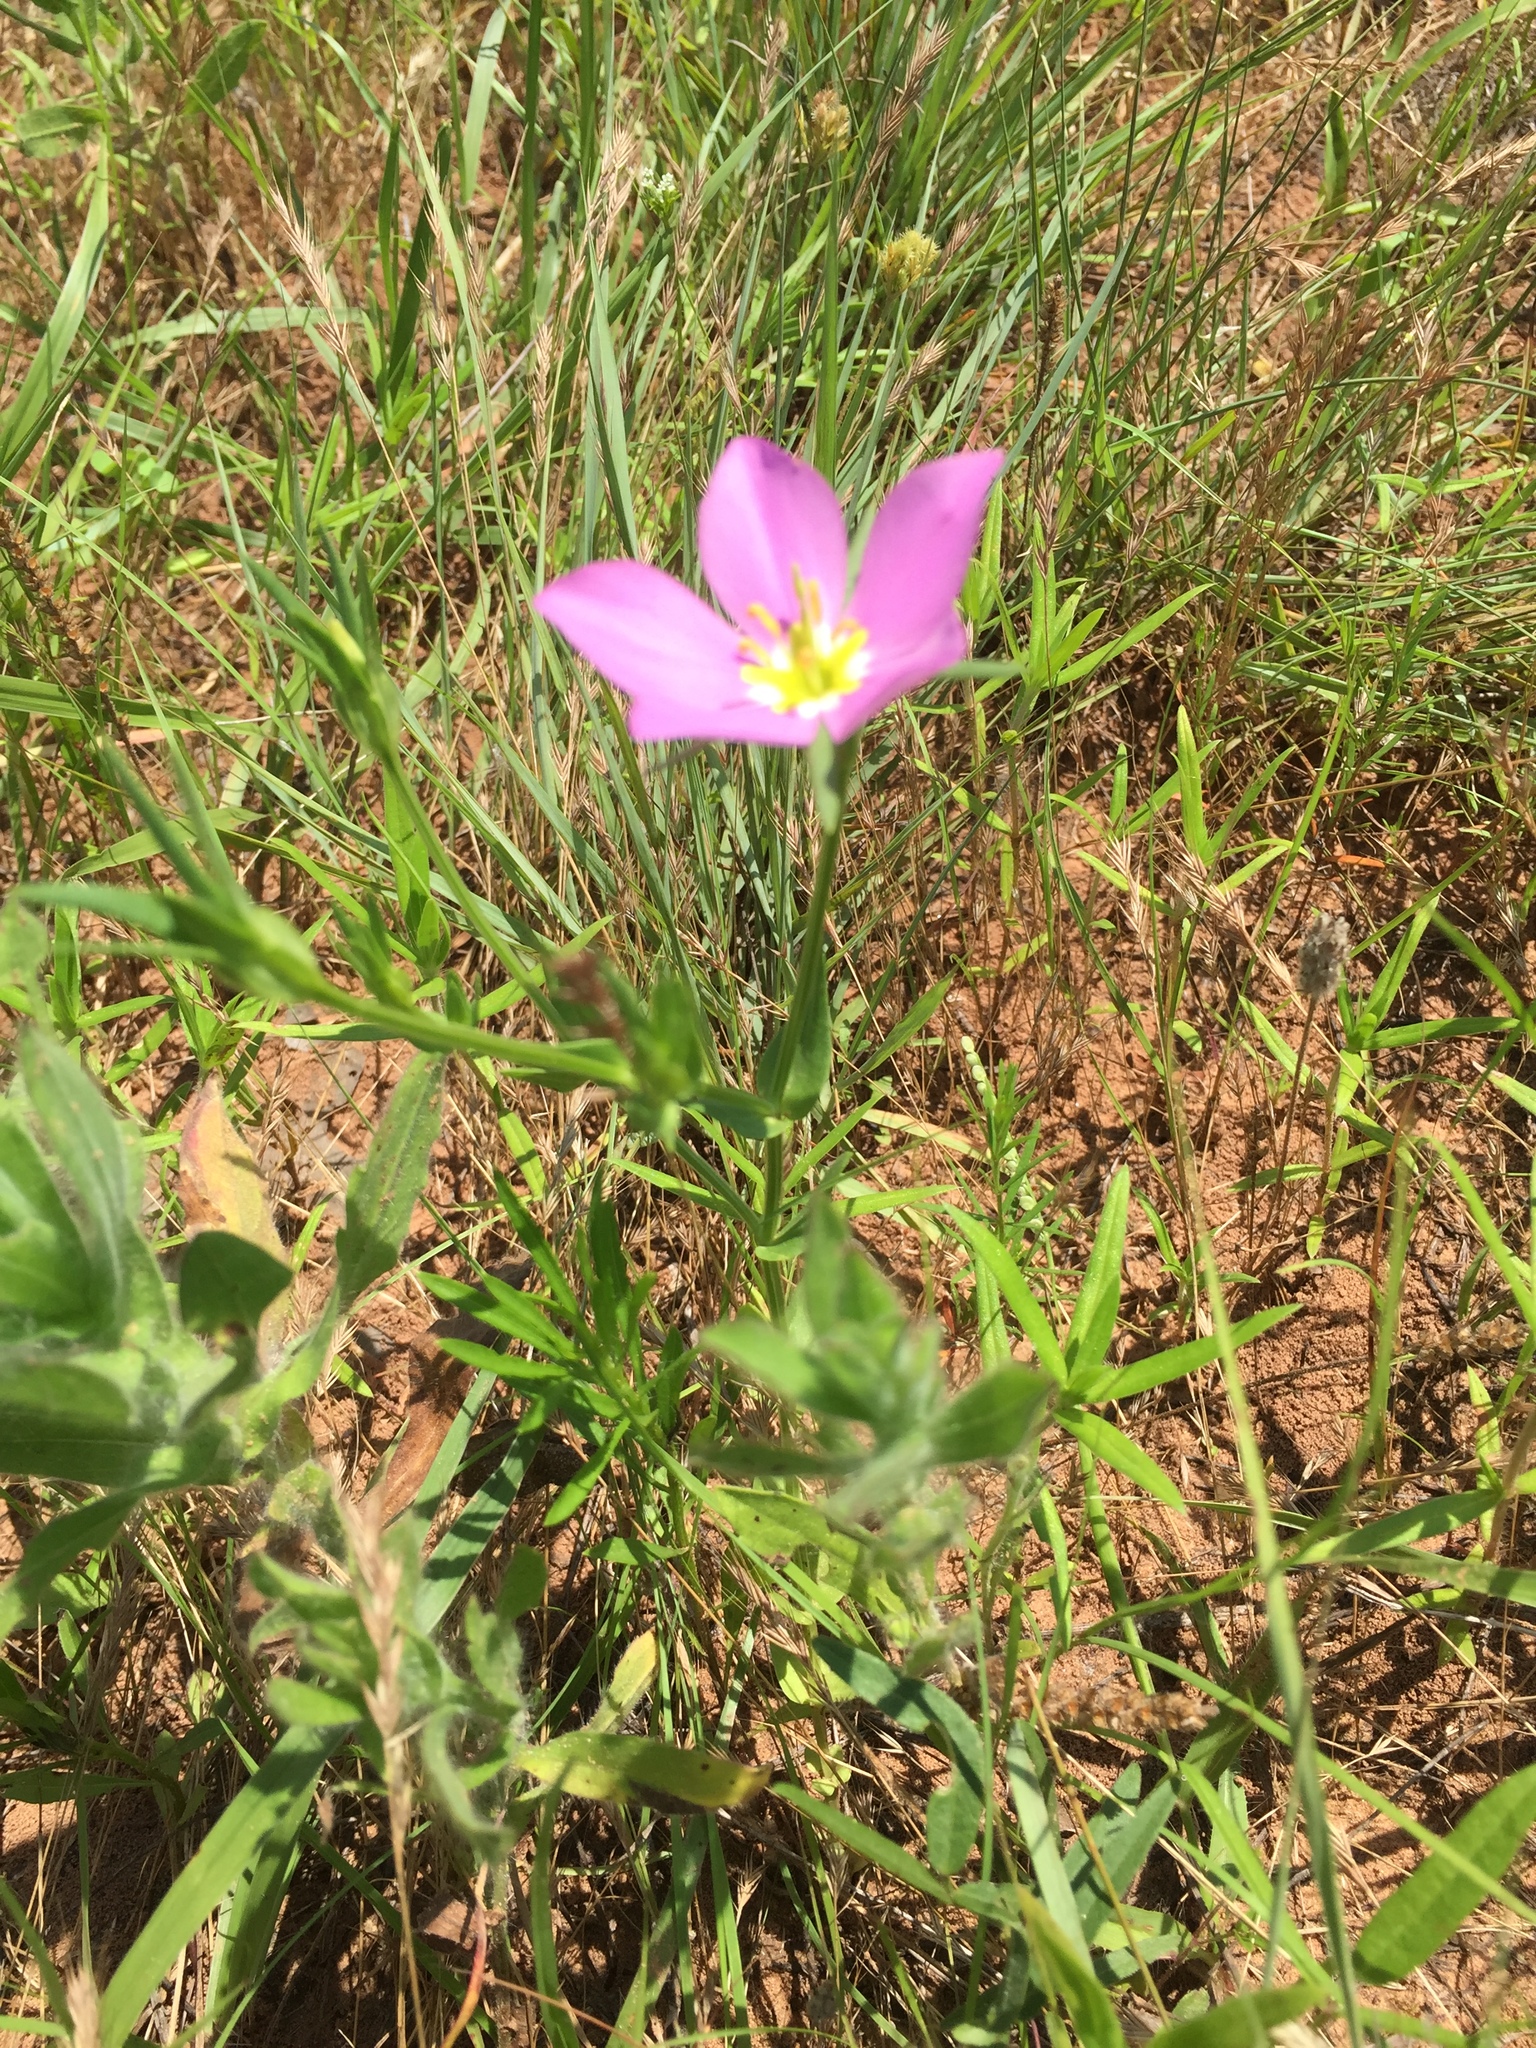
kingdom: Plantae
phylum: Tracheophyta
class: Magnoliopsida
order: Gentianales
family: Gentianaceae
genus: Sabatia
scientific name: Sabatia campestris
